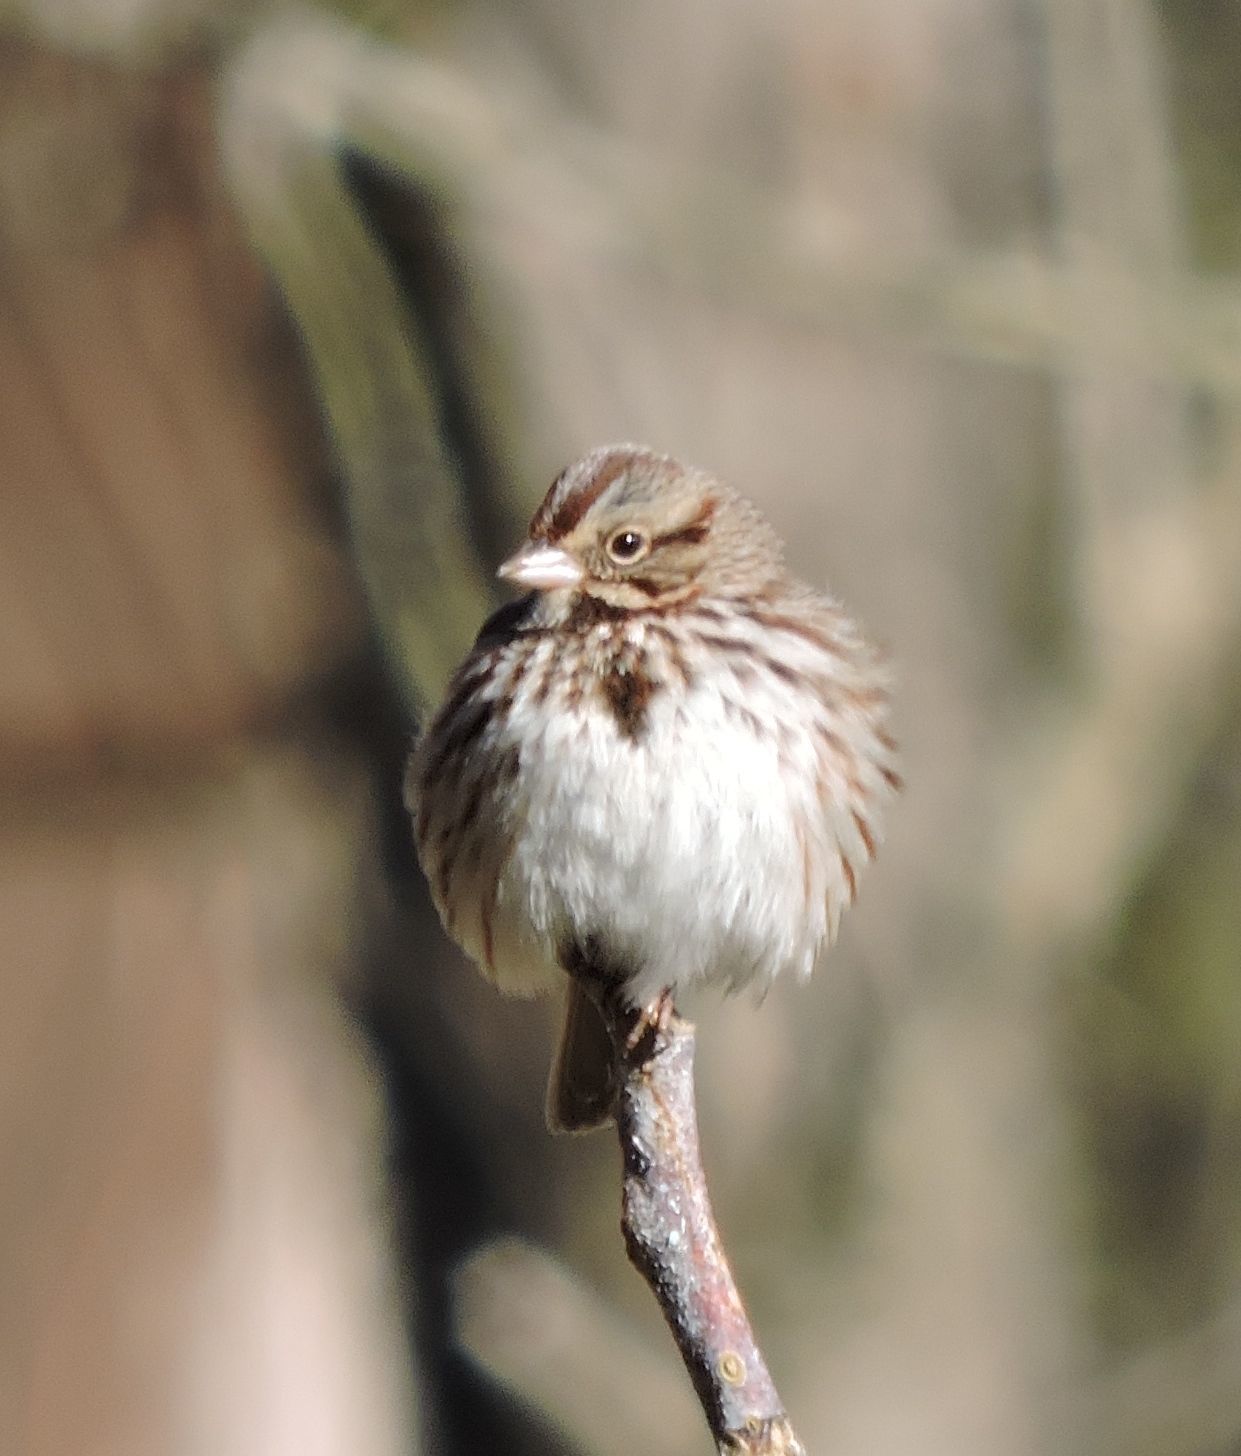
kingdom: Animalia
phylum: Chordata
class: Aves
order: Passeriformes
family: Passerellidae
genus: Melospiza
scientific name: Melospiza melodia
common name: Song sparrow
